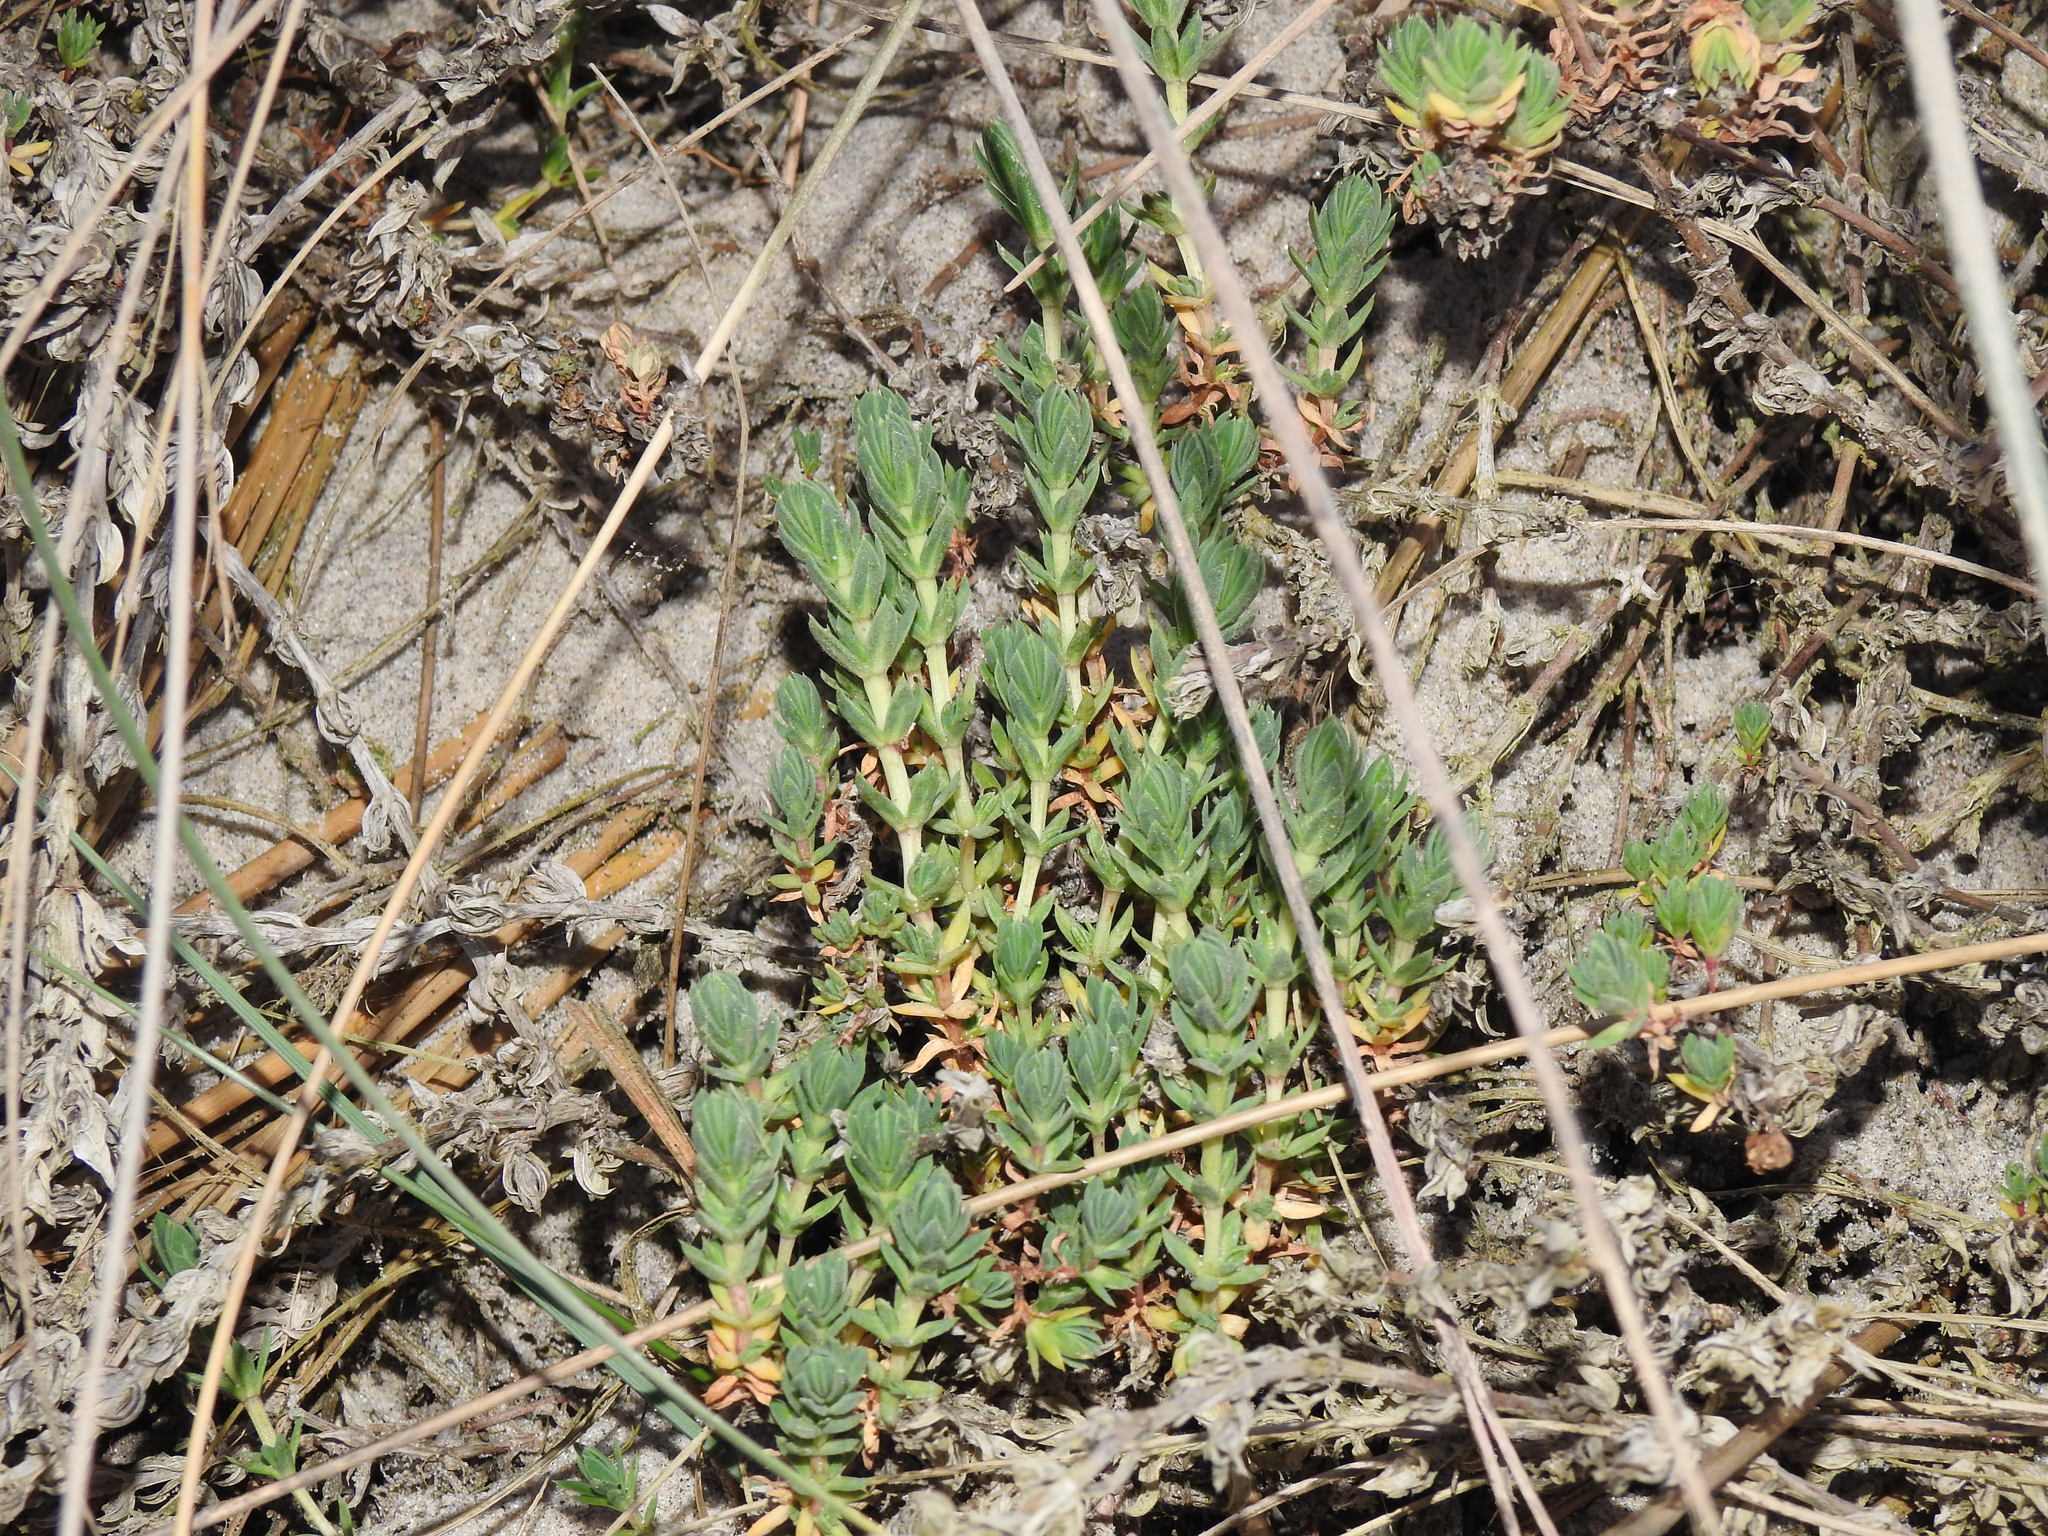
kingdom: Plantae
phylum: Tracheophyta
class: Magnoliopsida
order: Gentianales
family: Rubiaceae
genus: Crucianella
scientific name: Crucianella maritima
